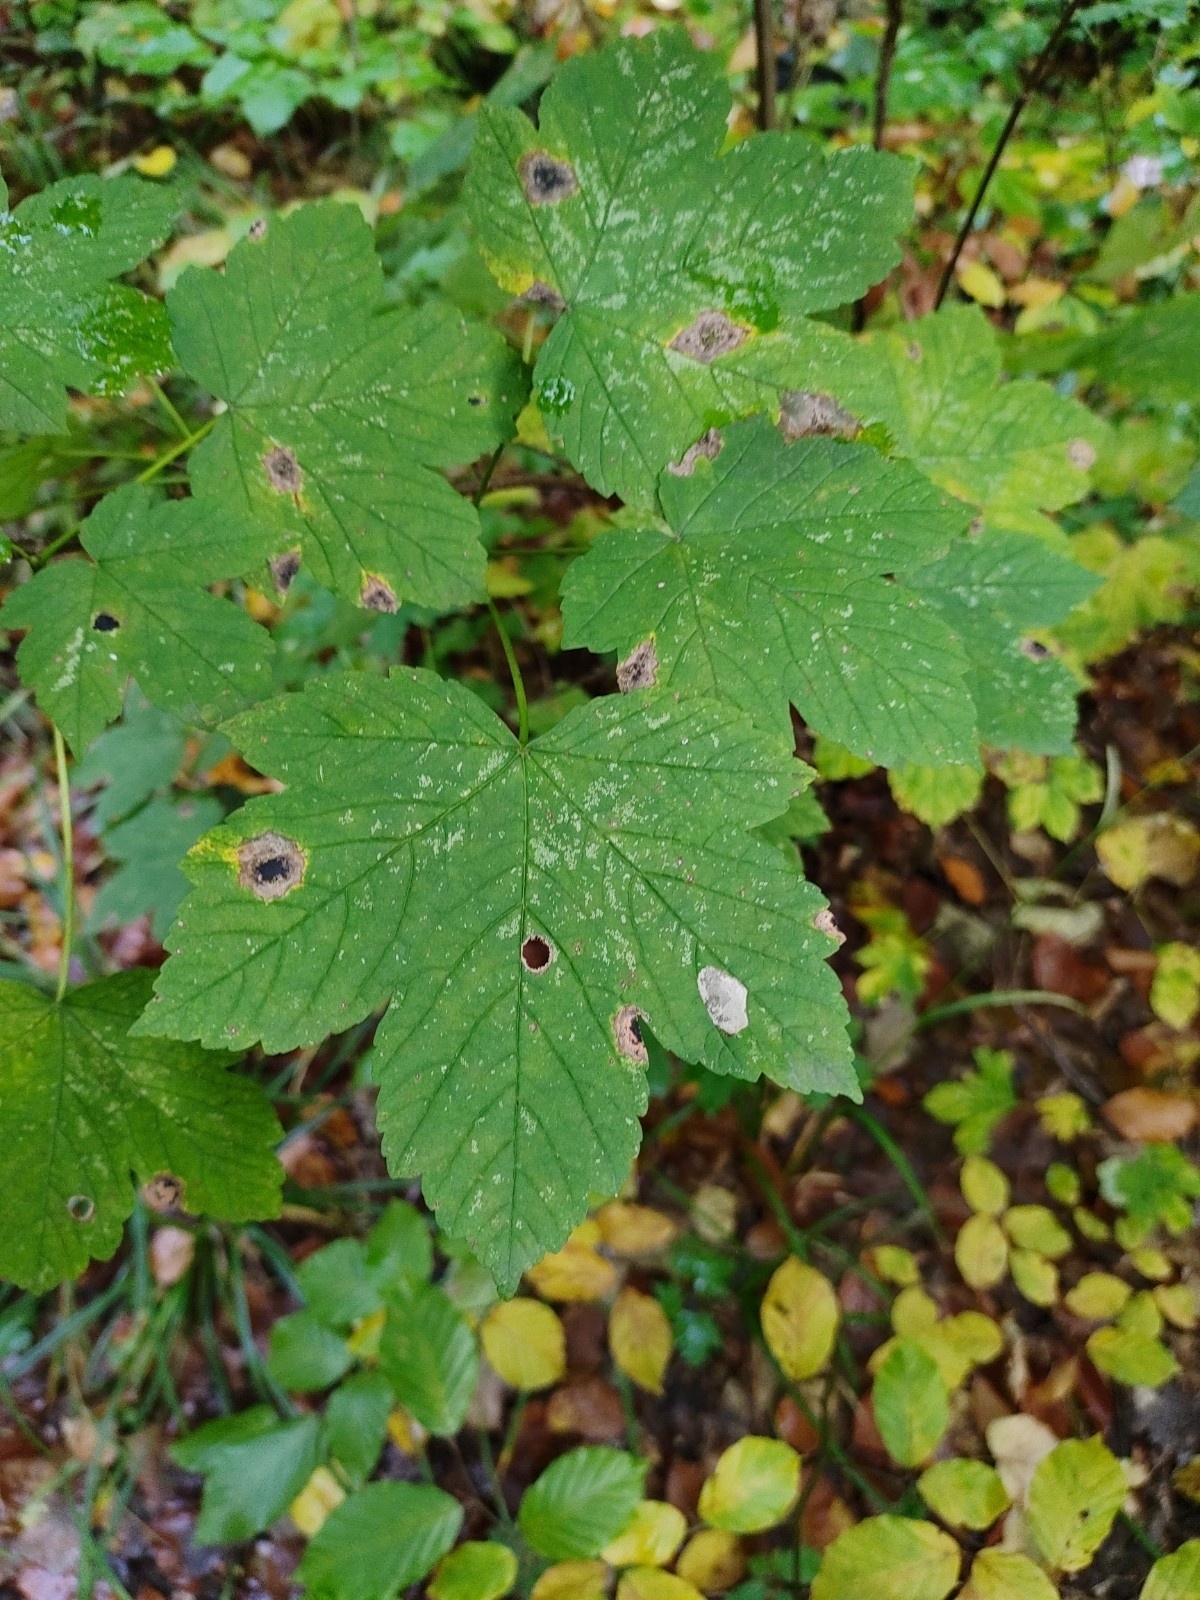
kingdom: Plantae
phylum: Tracheophyta
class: Magnoliopsida
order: Sapindales
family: Sapindaceae
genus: Acer
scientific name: Acer pseudoplatanus
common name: Sycamore
